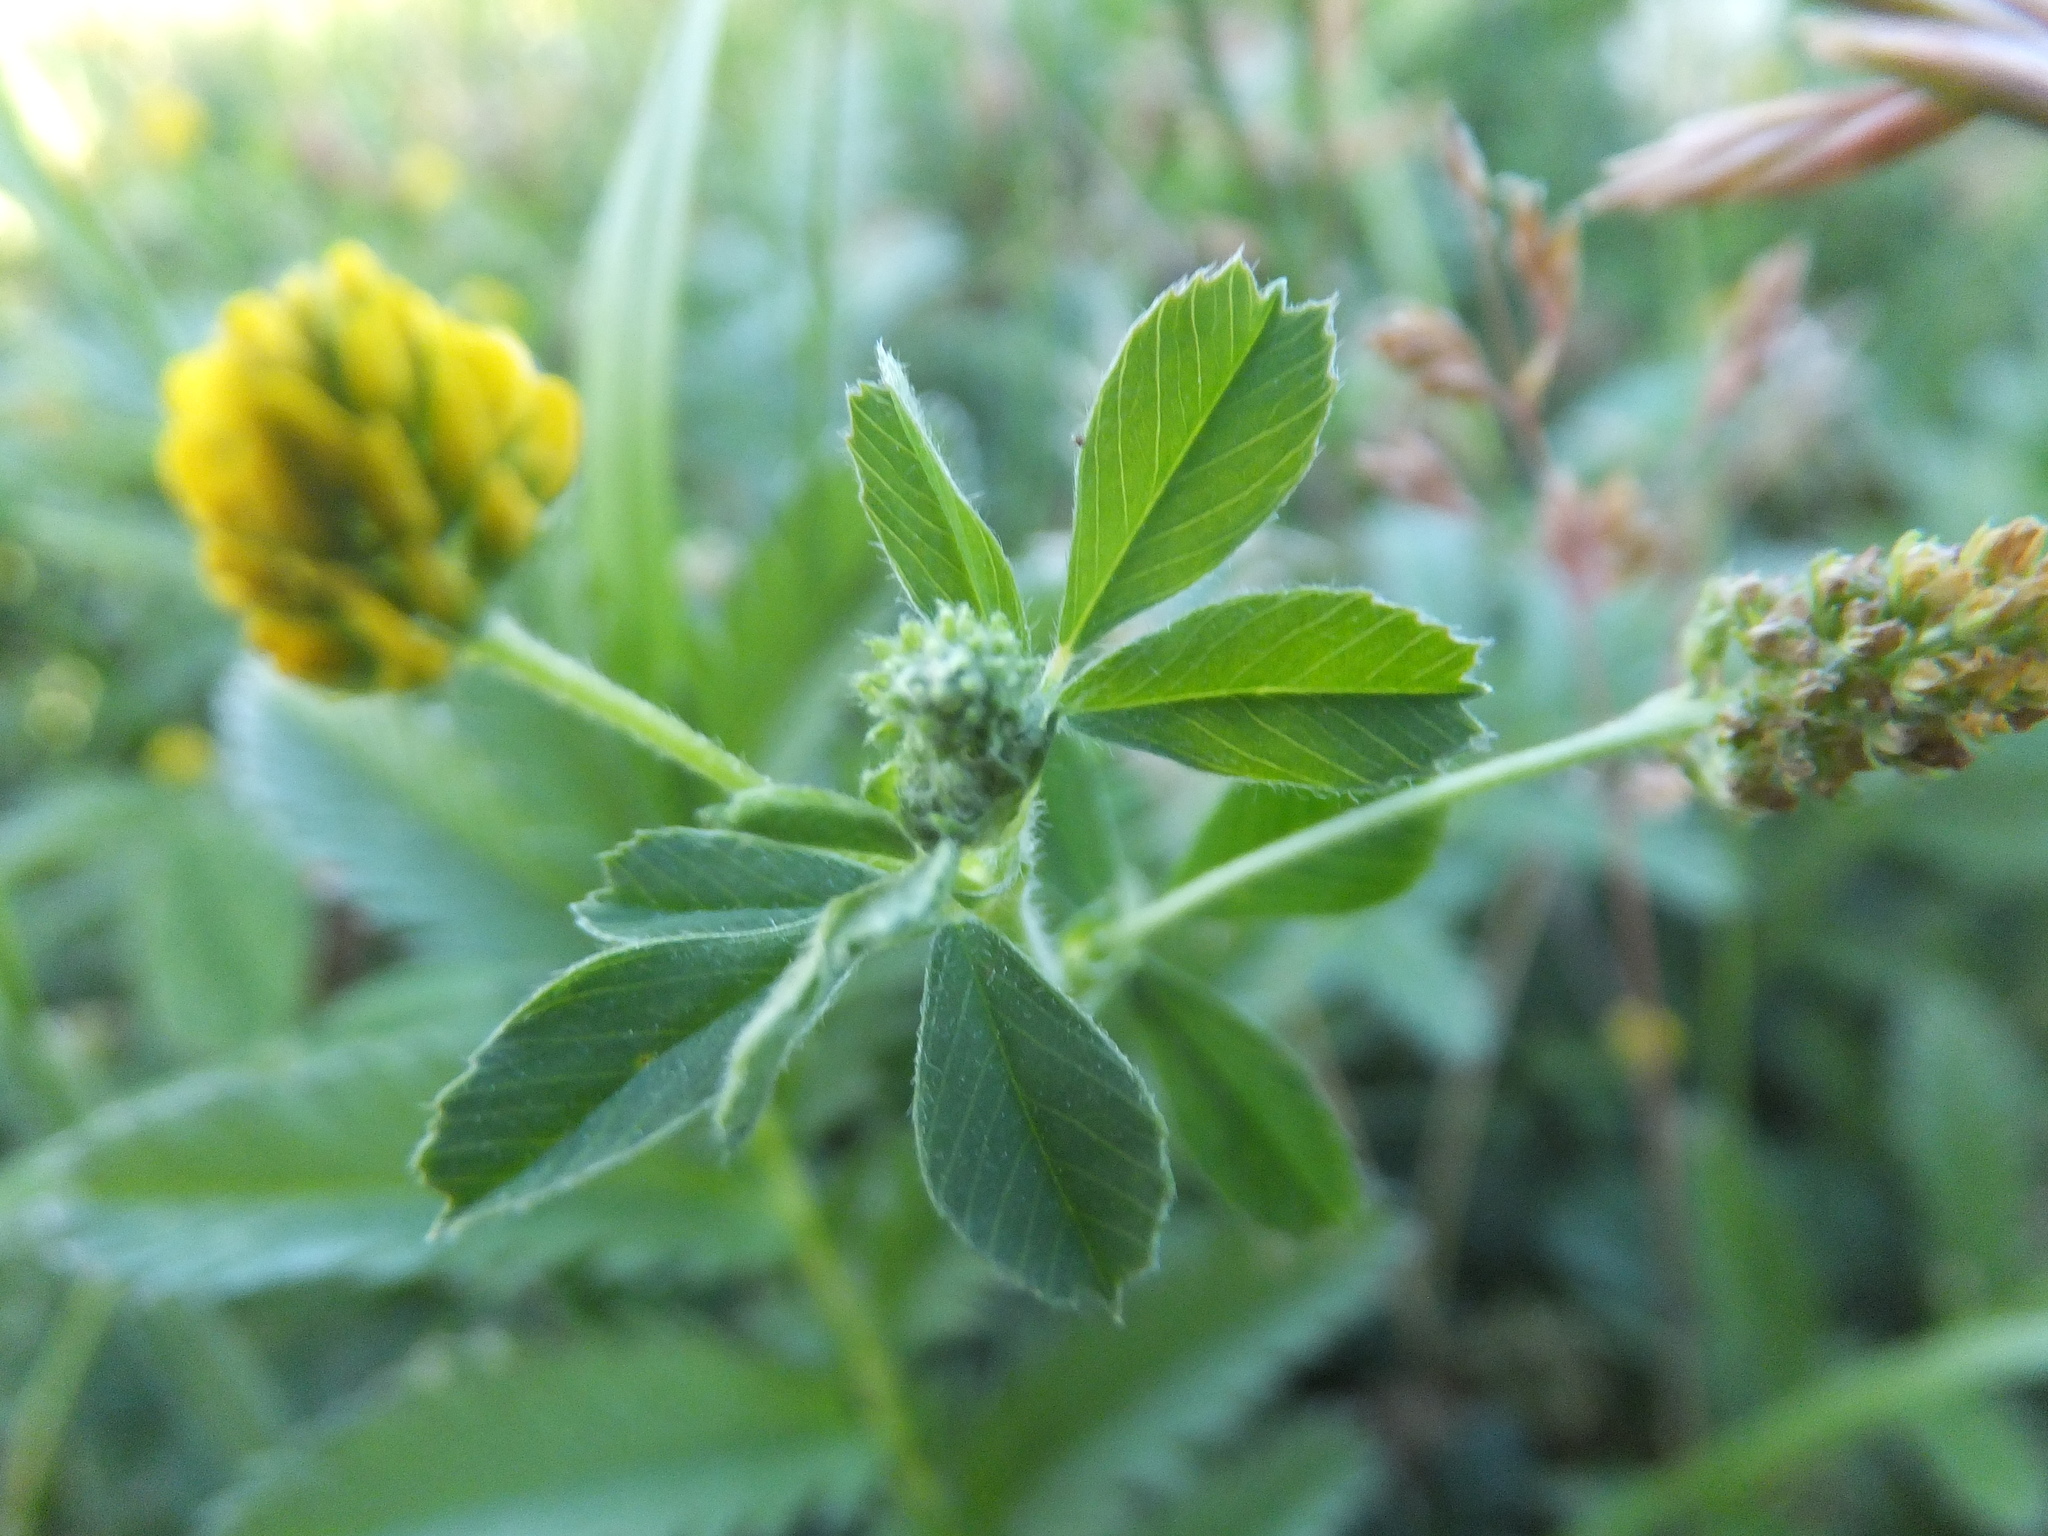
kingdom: Plantae
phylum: Tracheophyta
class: Magnoliopsida
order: Fabales
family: Fabaceae
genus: Medicago
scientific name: Medicago lupulina
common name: Black medick
